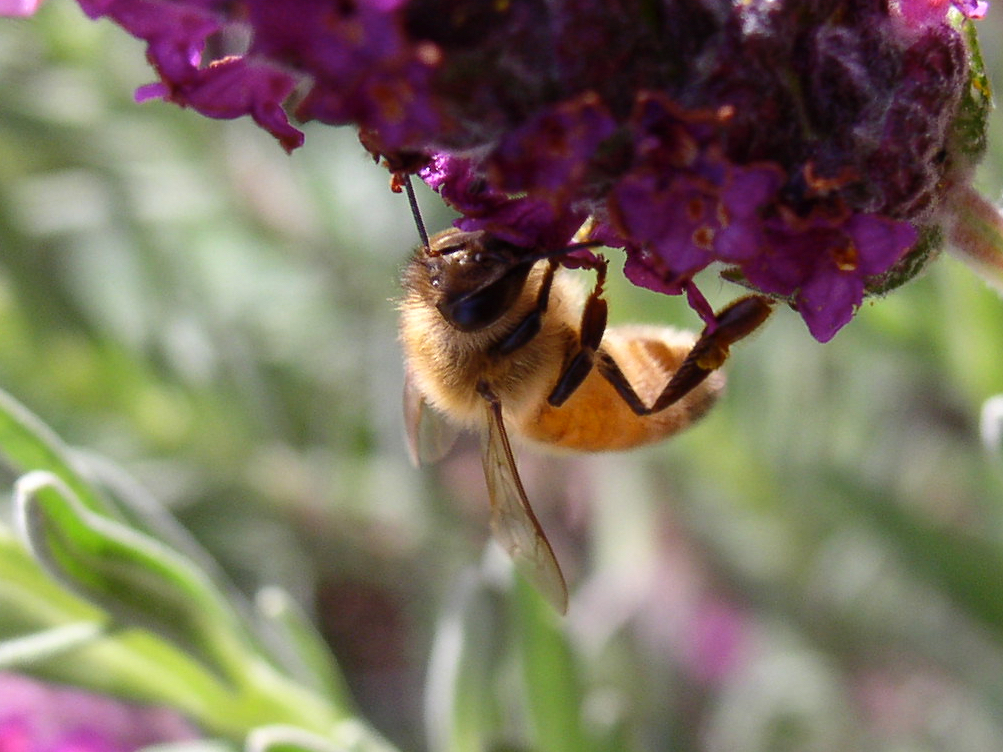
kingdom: Animalia
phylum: Arthropoda
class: Insecta
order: Hymenoptera
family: Apidae
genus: Apis
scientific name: Apis mellifera
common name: Honey bee
